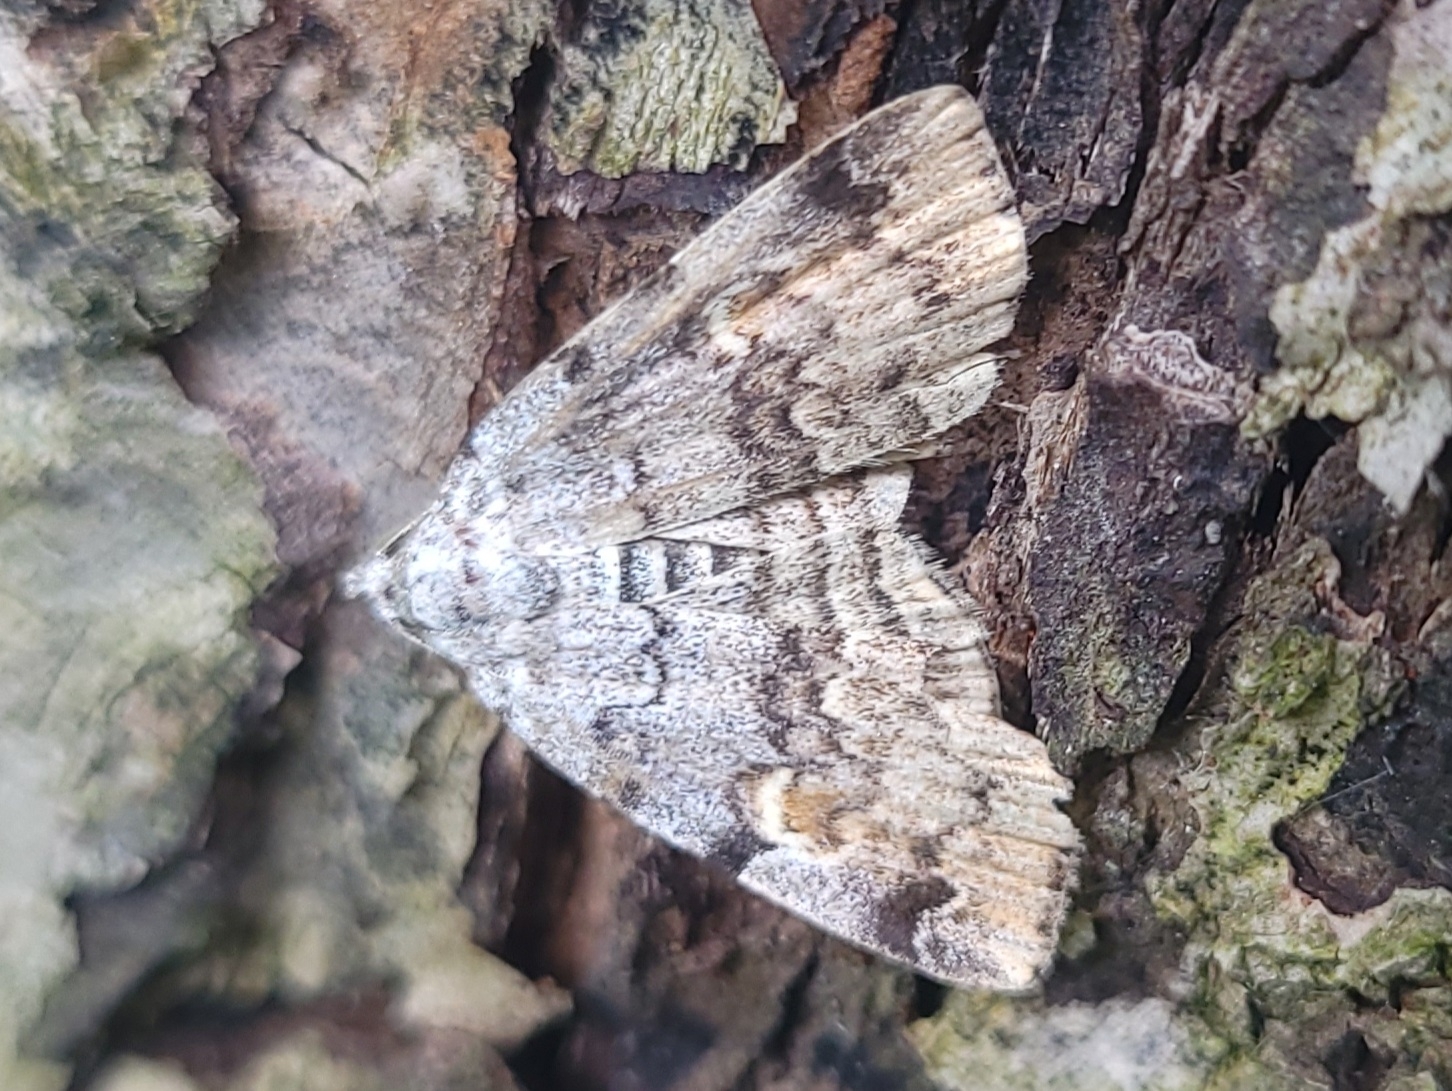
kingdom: Animalia
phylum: Arthropoda
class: Insecta
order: Lepidoptera
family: Erebidae
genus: Idia
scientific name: Idia americalis
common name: American idia moth
